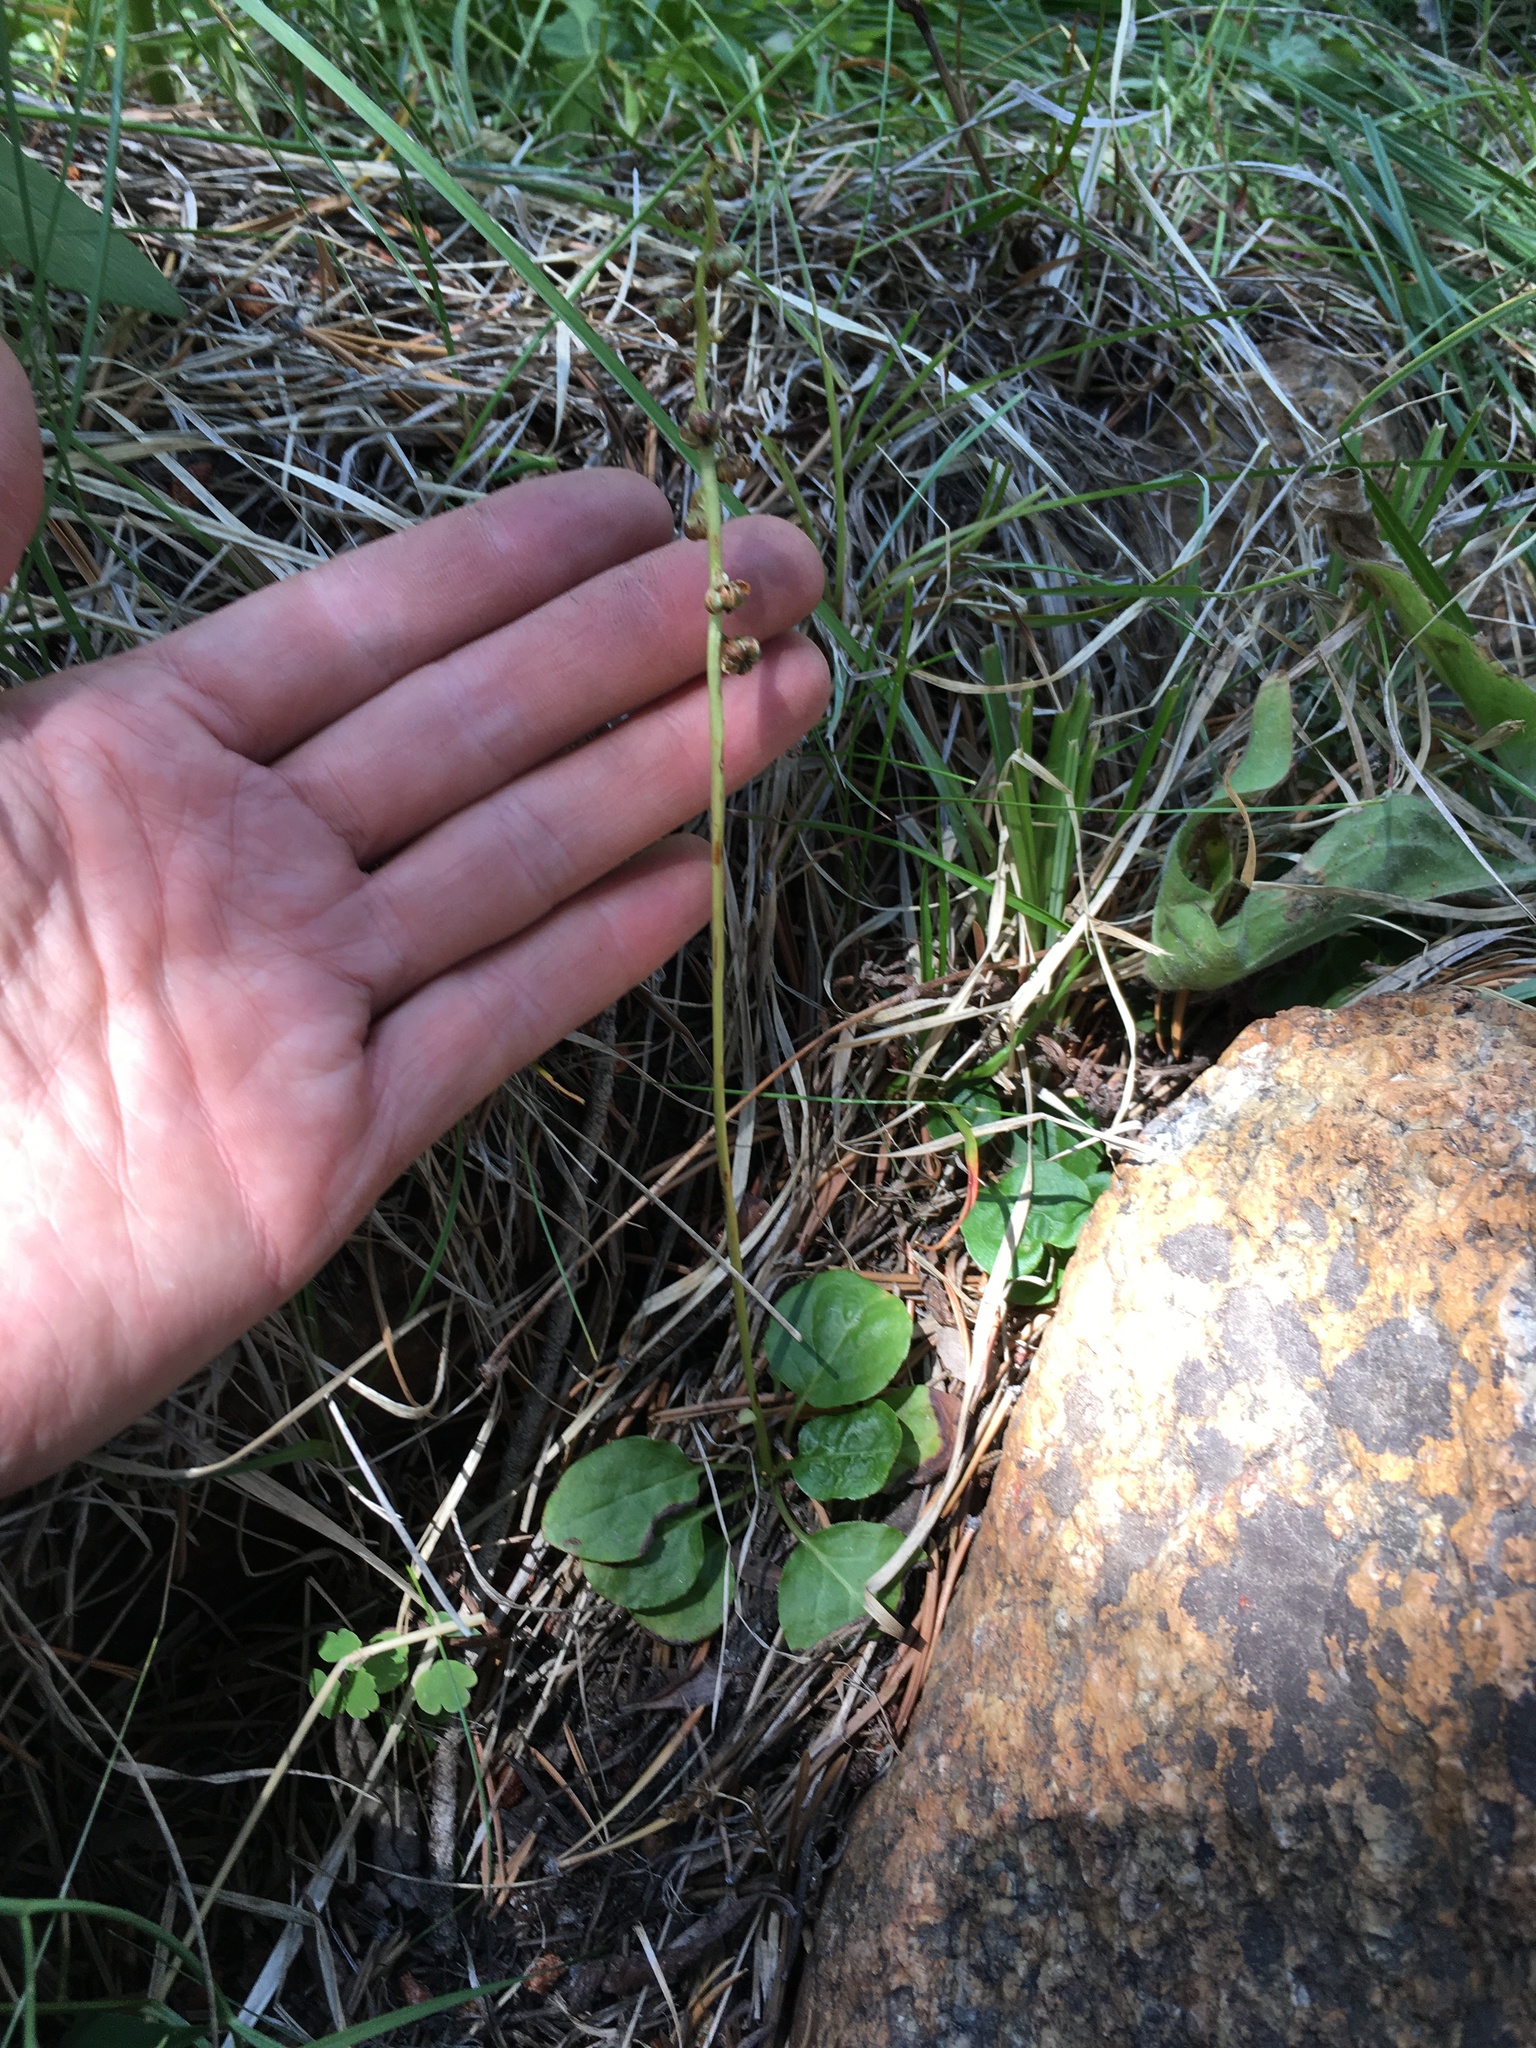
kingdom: Plantae
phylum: Tracheophyta
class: Magnoliopsida
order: Ericales
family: Ericaceae
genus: Pyrola
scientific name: Pyrola minor
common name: Common wintergreen
